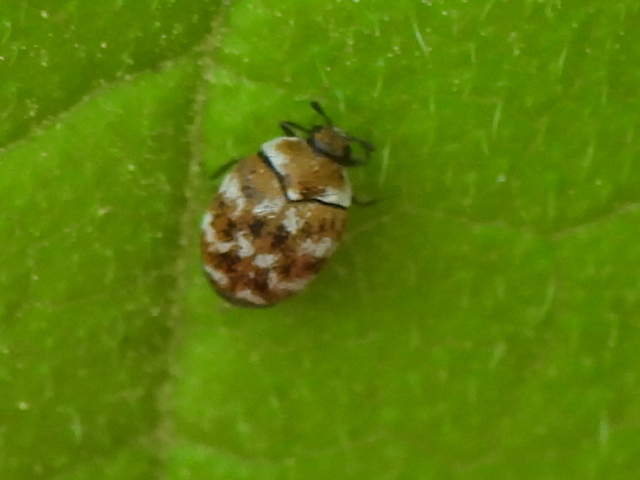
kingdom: Animalia
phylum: Arthropoda
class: Insecta
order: Coleoptera
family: Dermestidae
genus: Anthrenus
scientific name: Anthrenus verbasci
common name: Varied carpet beetle
